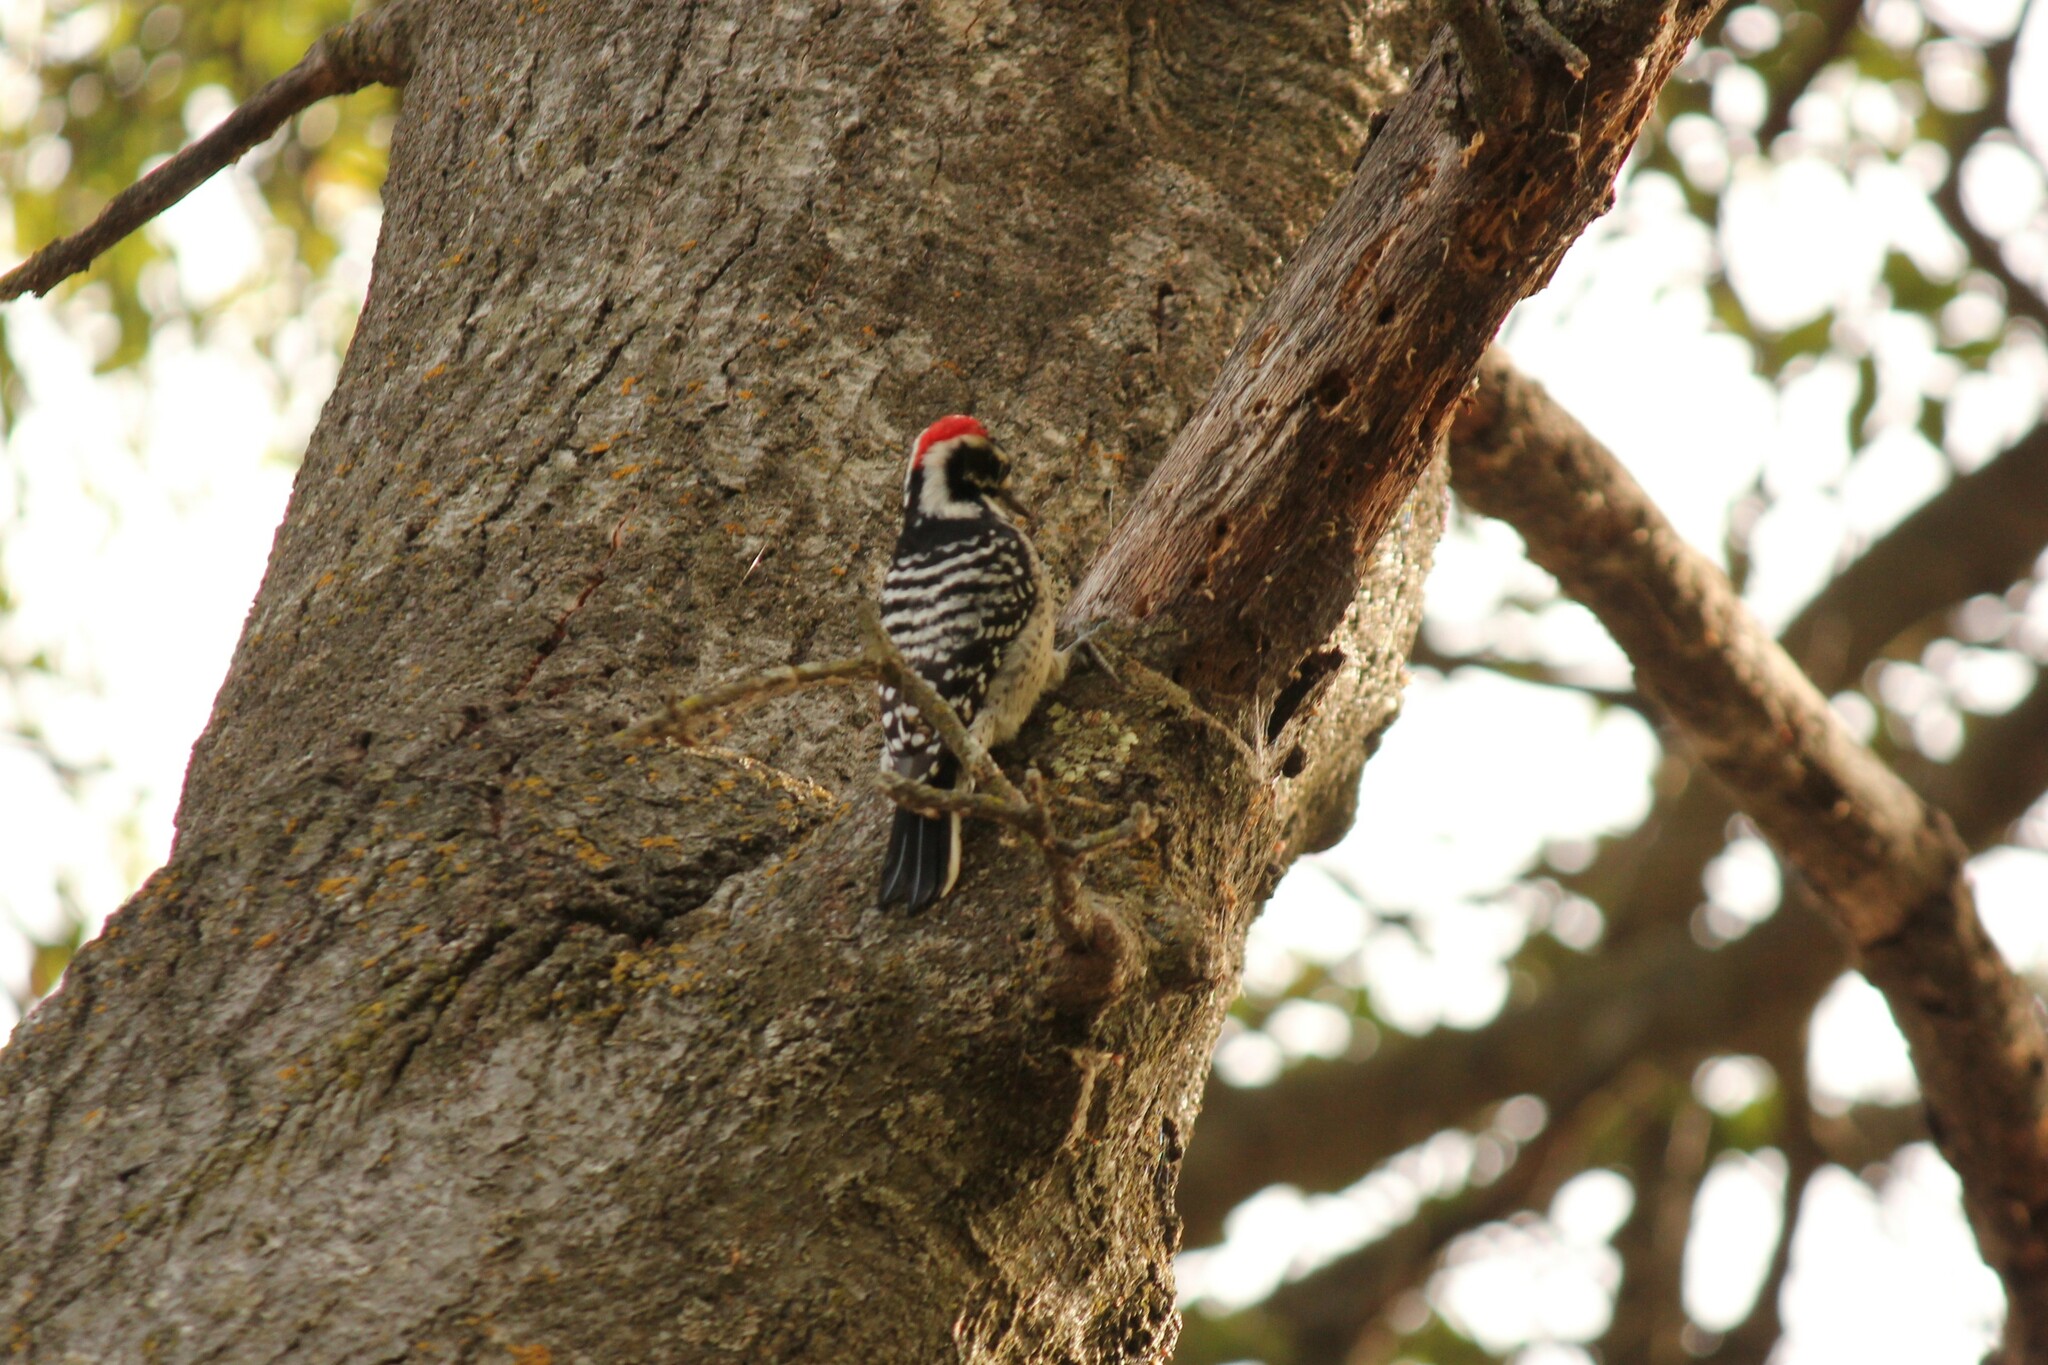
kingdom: Animalia
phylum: Chordata
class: Aves
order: Piciformes
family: Picidae
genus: Dryobates
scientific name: Dryobates nuttallii
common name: Nuttall's woodpecker
